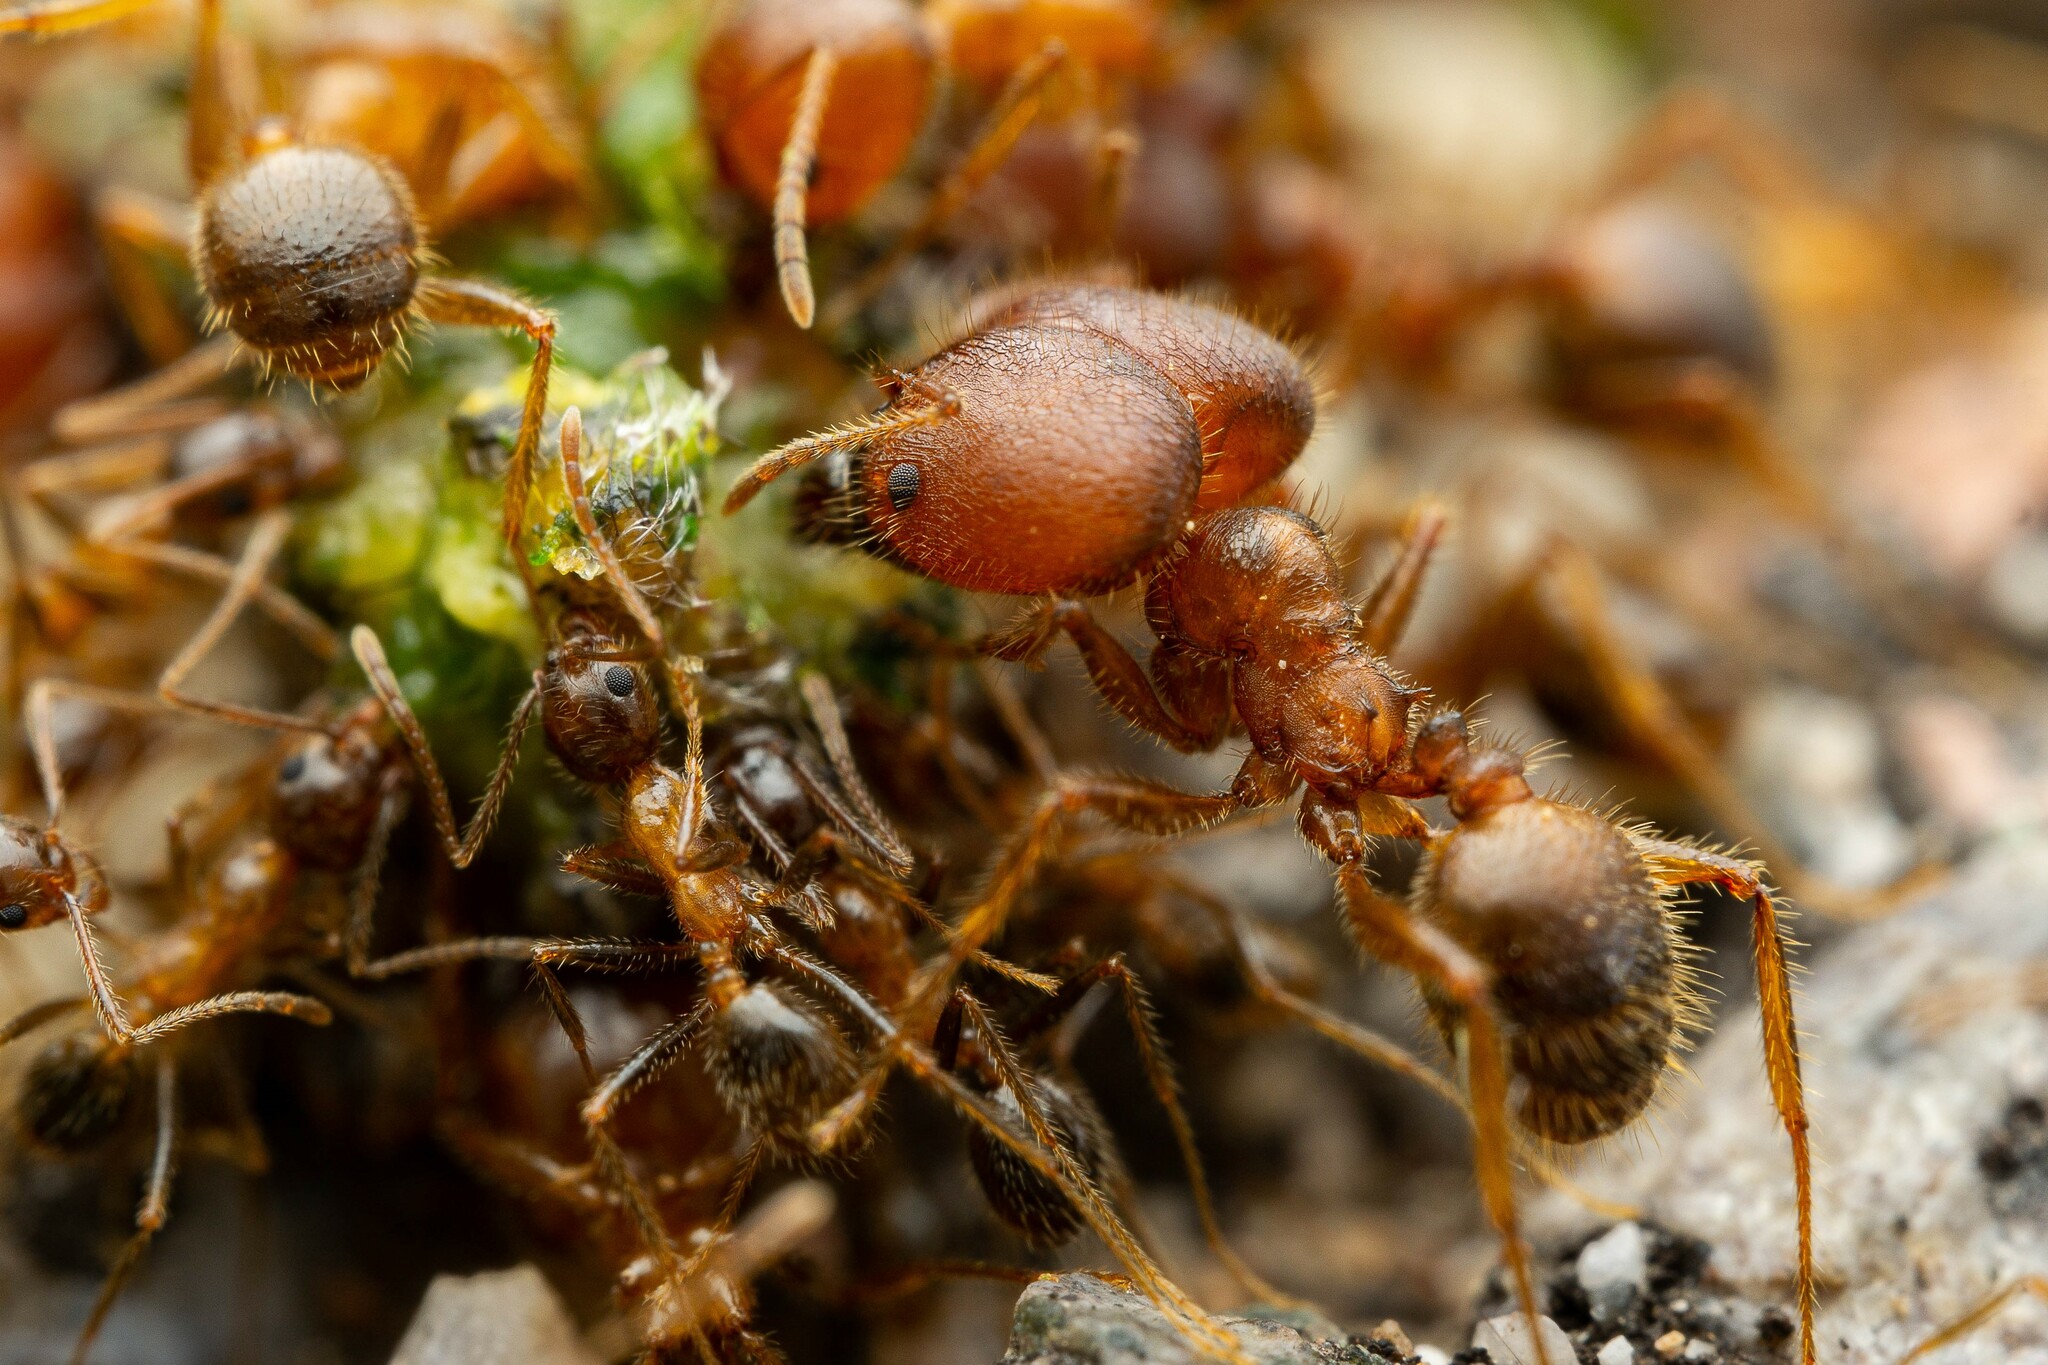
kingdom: Animalia
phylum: Arthropoda
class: Insecta
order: Hymenoptera
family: Formicidae
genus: Pheidole
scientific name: Pheidole obtusospinosa
